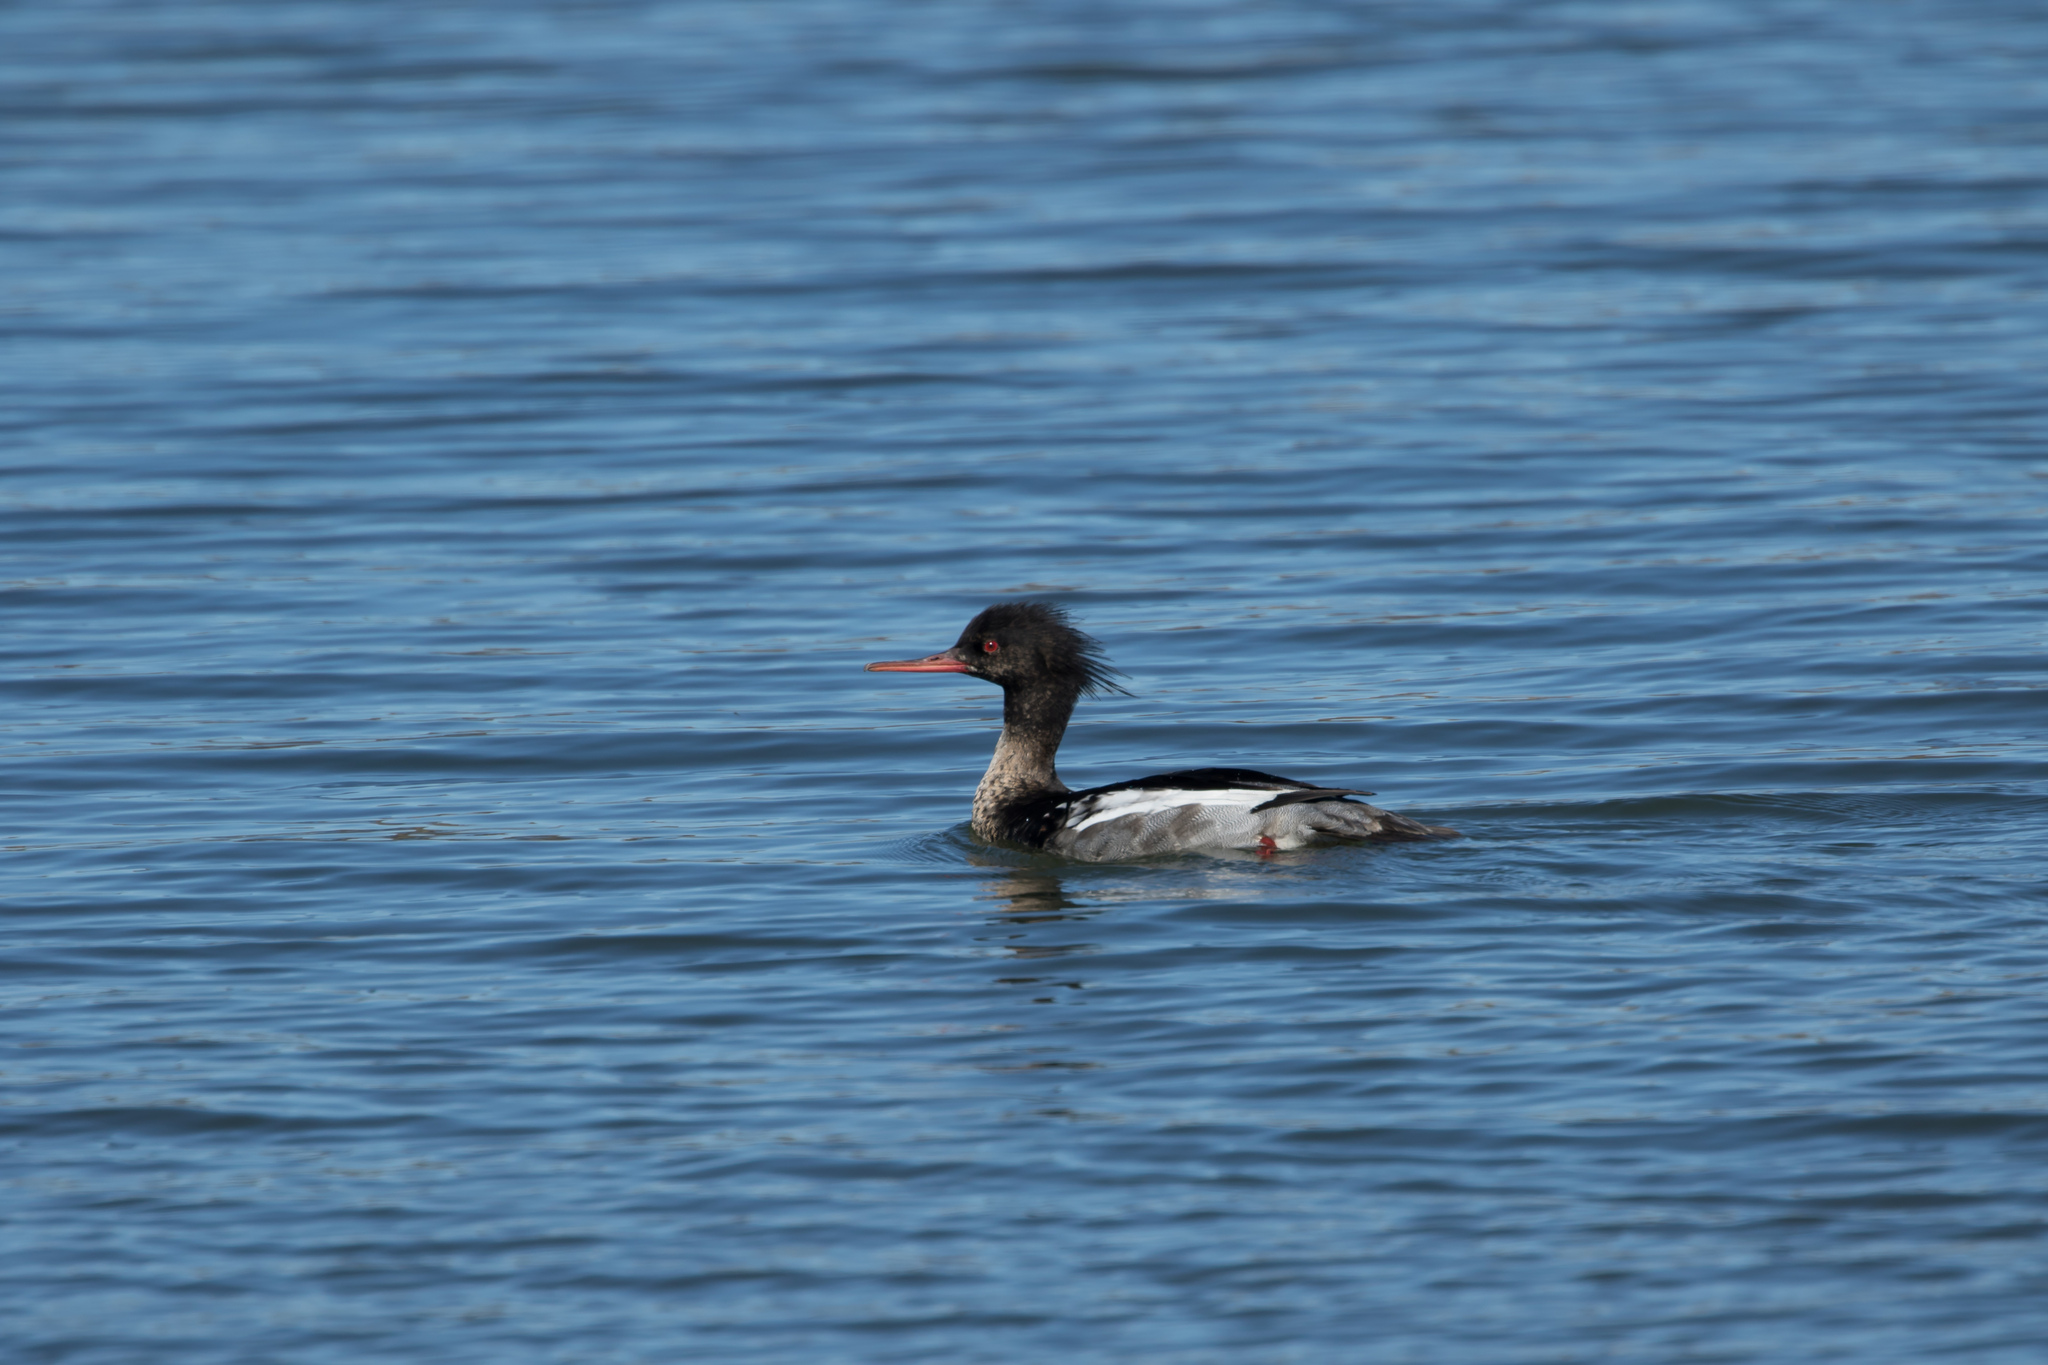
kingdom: Animalia
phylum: Chordata
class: Aves
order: Anseriformes
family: Anatidae
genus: Mergus
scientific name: Mergus serrator
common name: Red-breasted merganser
